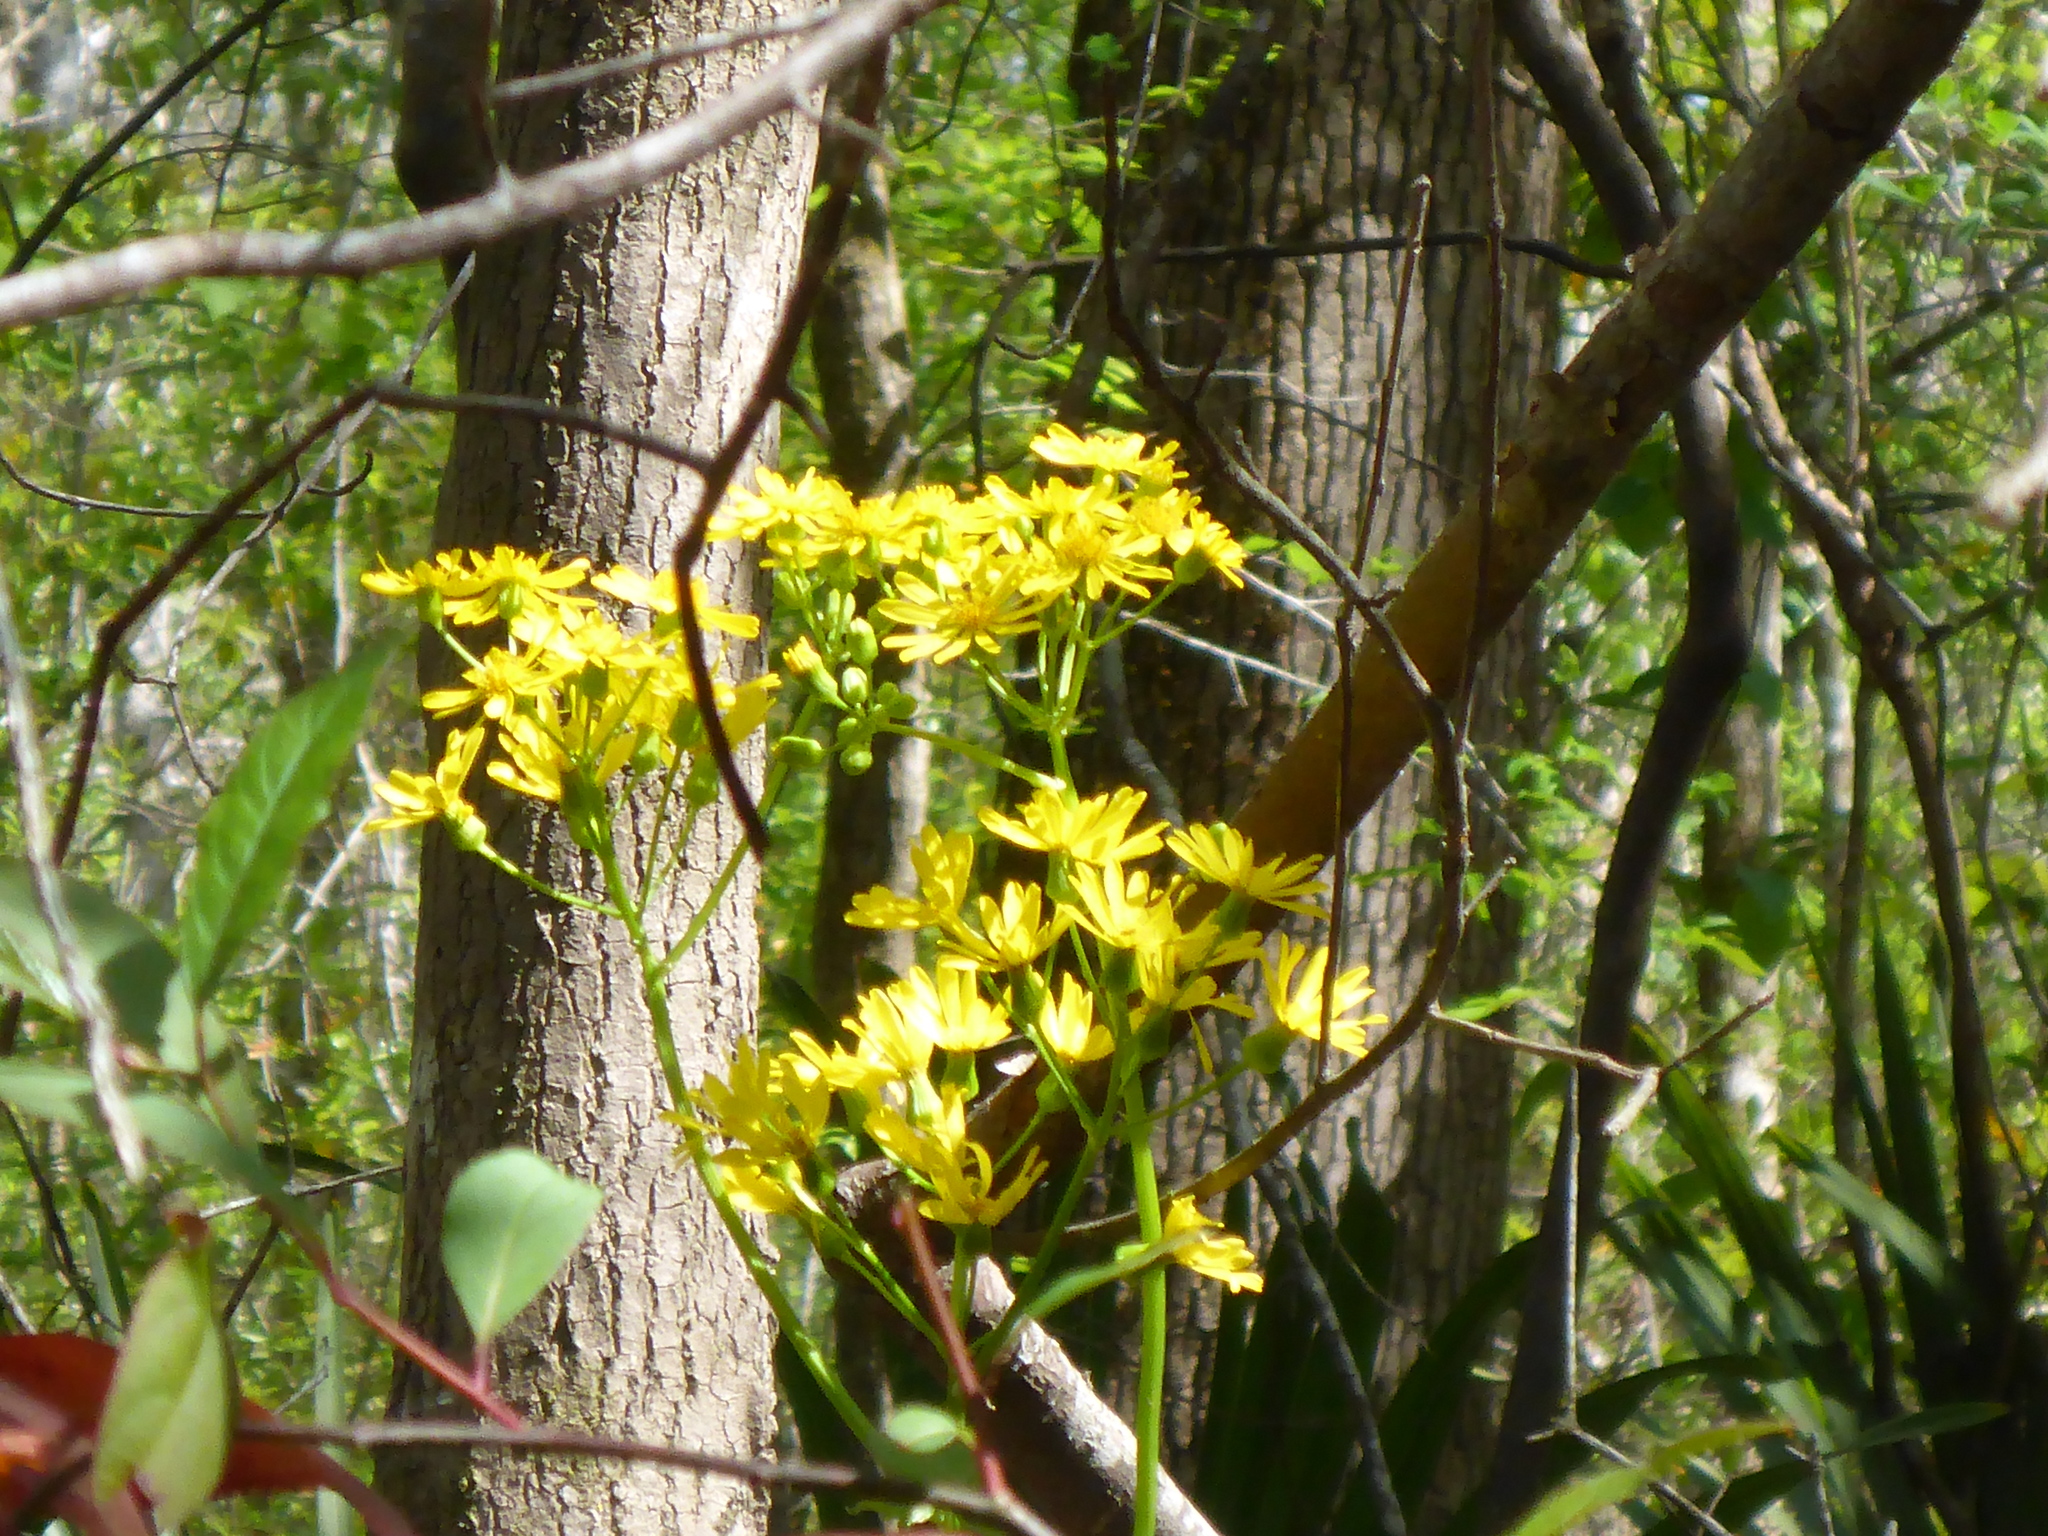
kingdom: Plantae
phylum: Tracheophyta
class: Magnoliopsida
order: Asterales
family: Asteraceae
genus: Packera
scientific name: Packera glabella
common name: Butterweed
